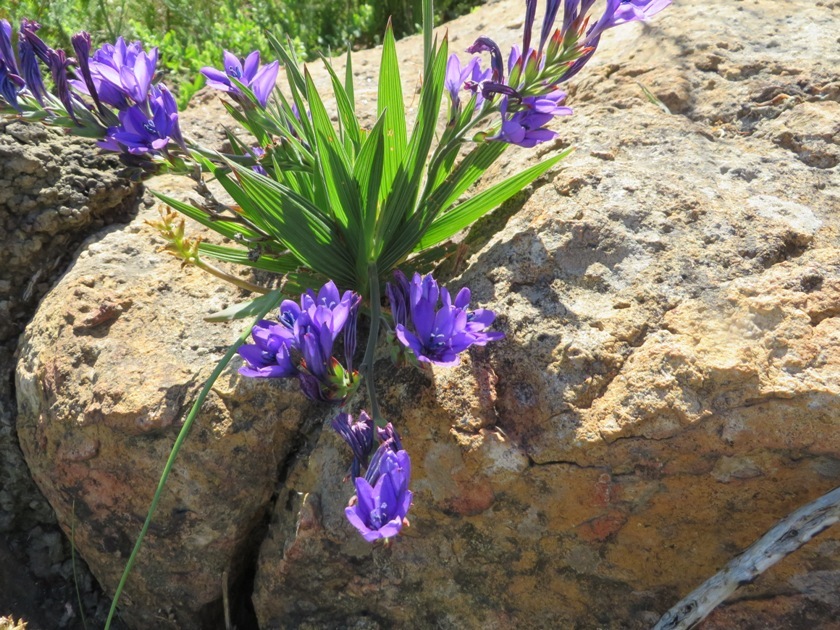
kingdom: Plantae
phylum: Tracheophyta
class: Liliopsida
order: Asparagales
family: Iridaceae
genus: Babiana
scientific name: Babiana angustifolia
